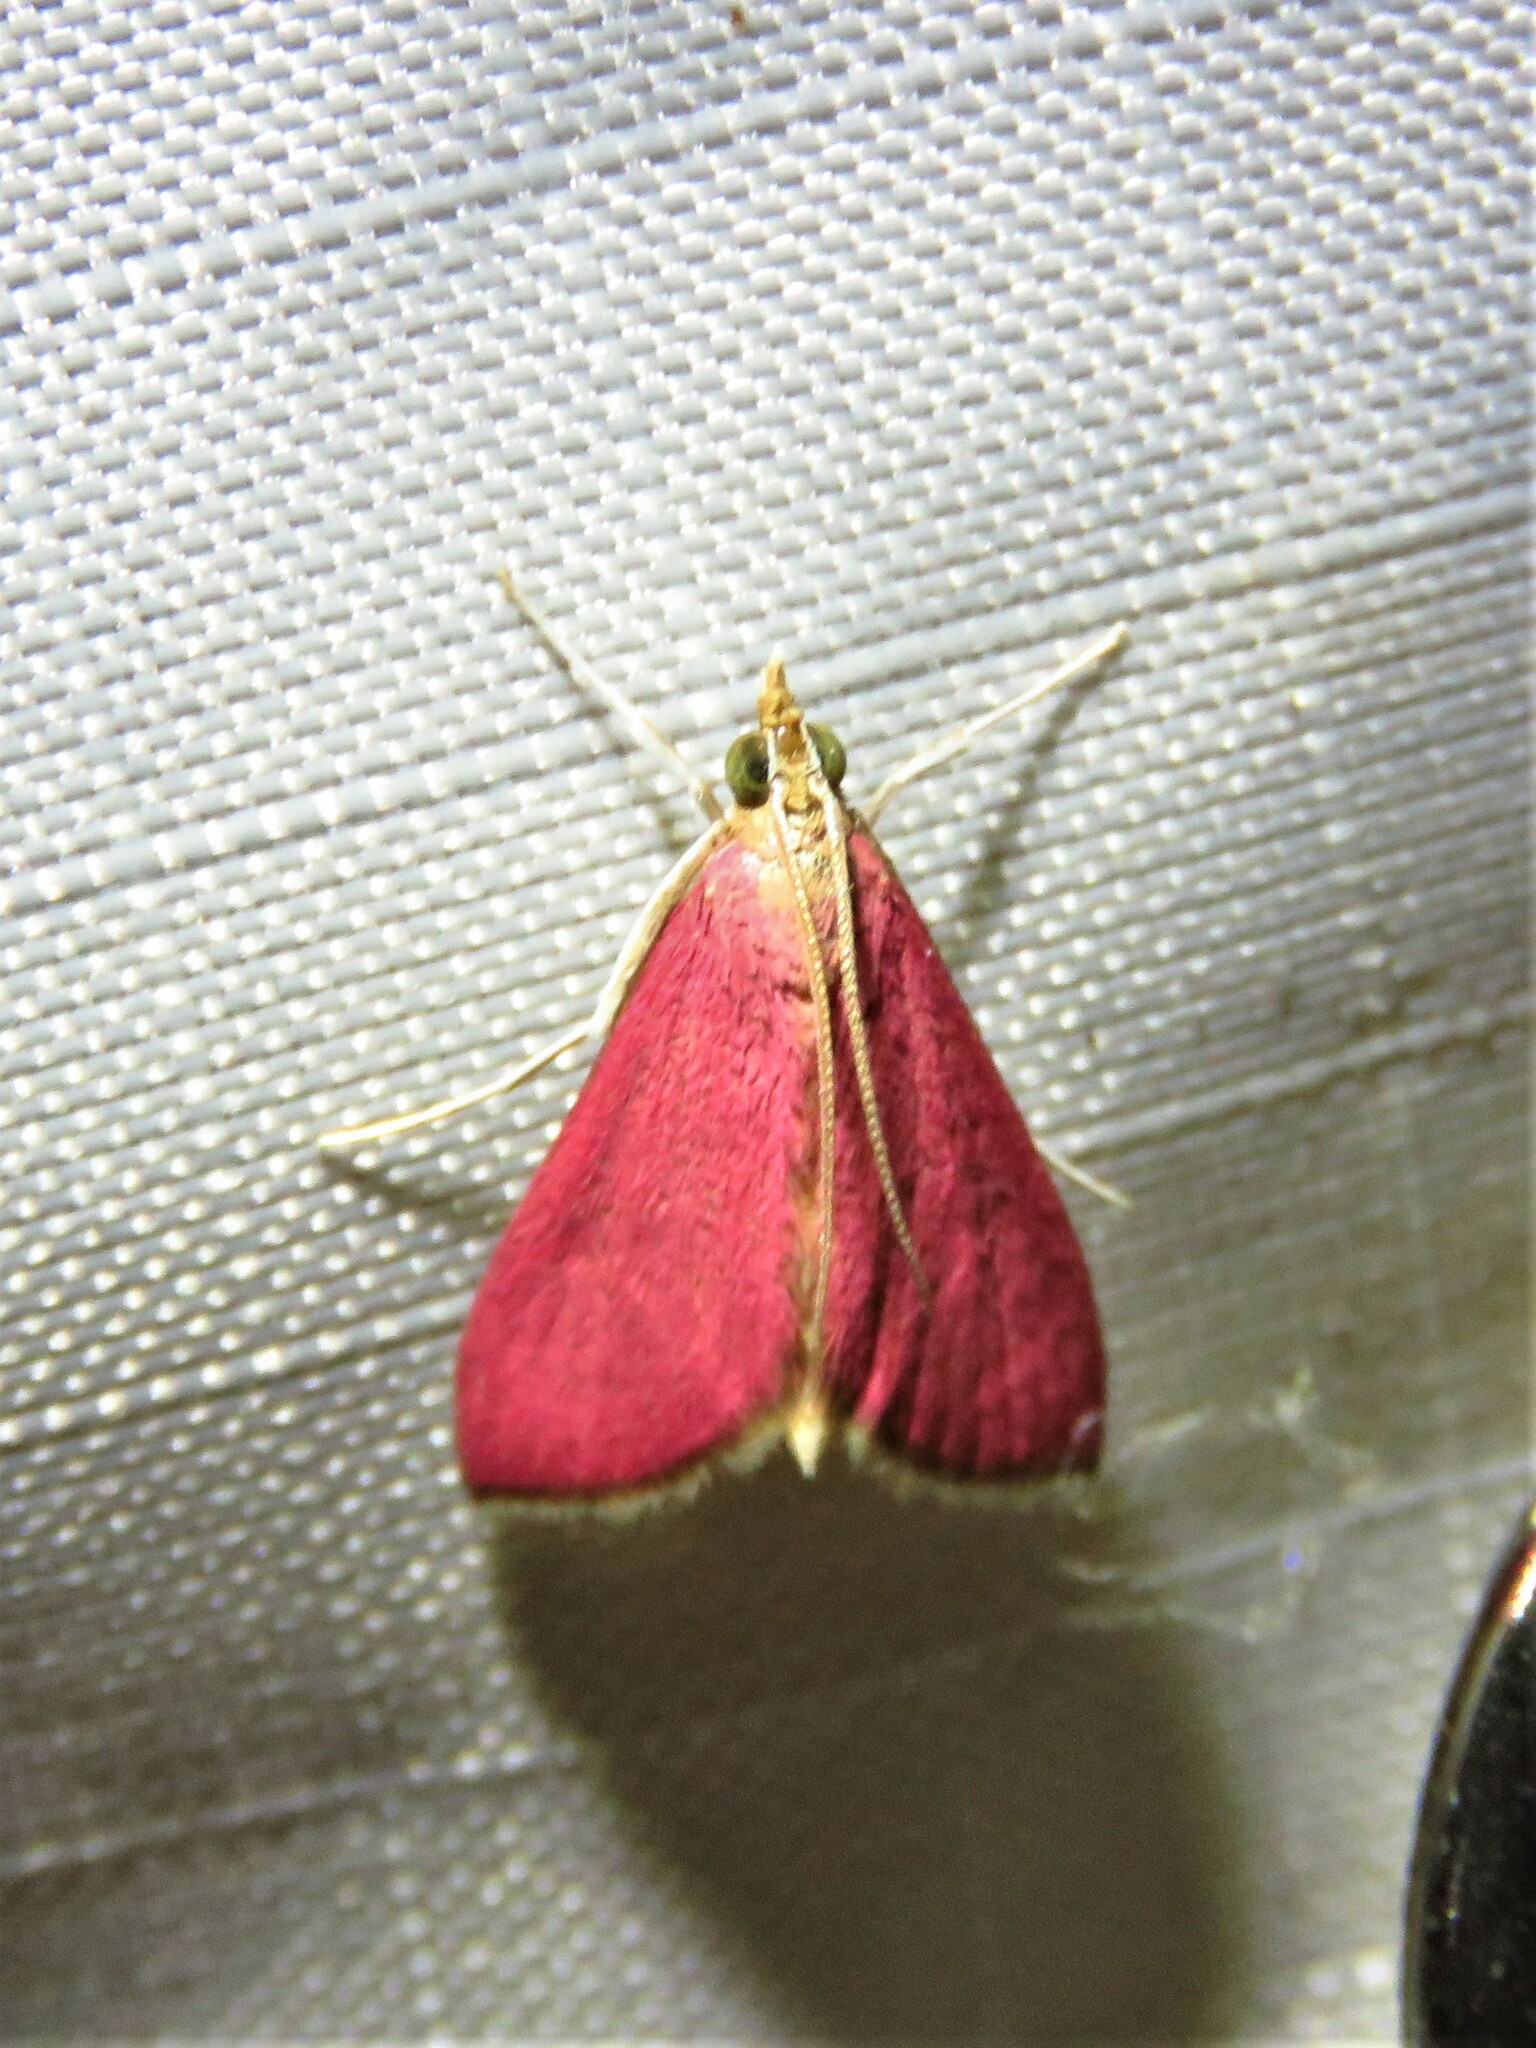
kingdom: Animalia
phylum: Arthropoda
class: Insecta
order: Lepidoptera
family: Crambidae
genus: Pyrausta
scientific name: Pyrausta inornatalis
